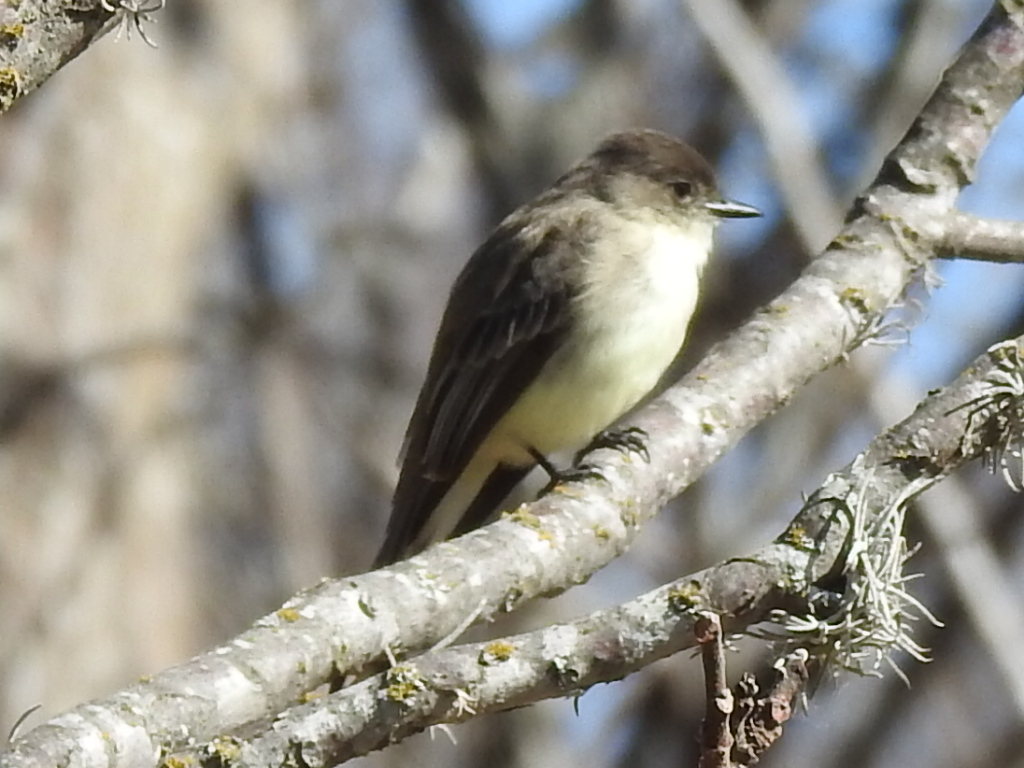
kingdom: Animalia
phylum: Chordata
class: Aves
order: Passeriformes
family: Tyrannidae
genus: Sayornis
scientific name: Sayornis phoebe
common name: Eastern phoebe
